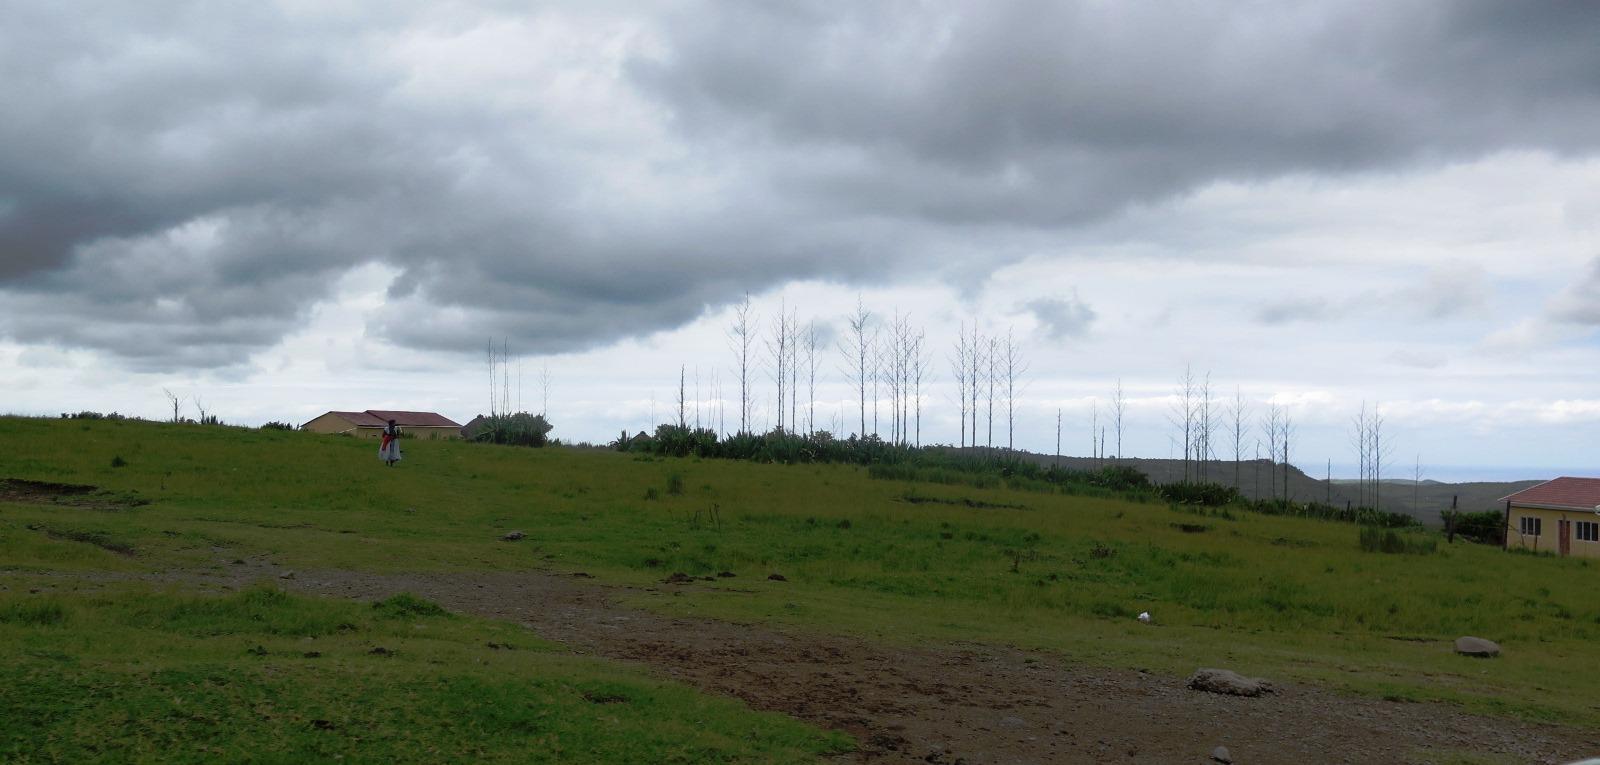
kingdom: Plantae
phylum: Tracheophyta
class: Liliopsida
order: Asparagales
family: Asparagaceae
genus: Furcraea
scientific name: Furcraea foetida
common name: Mauritius hemp
